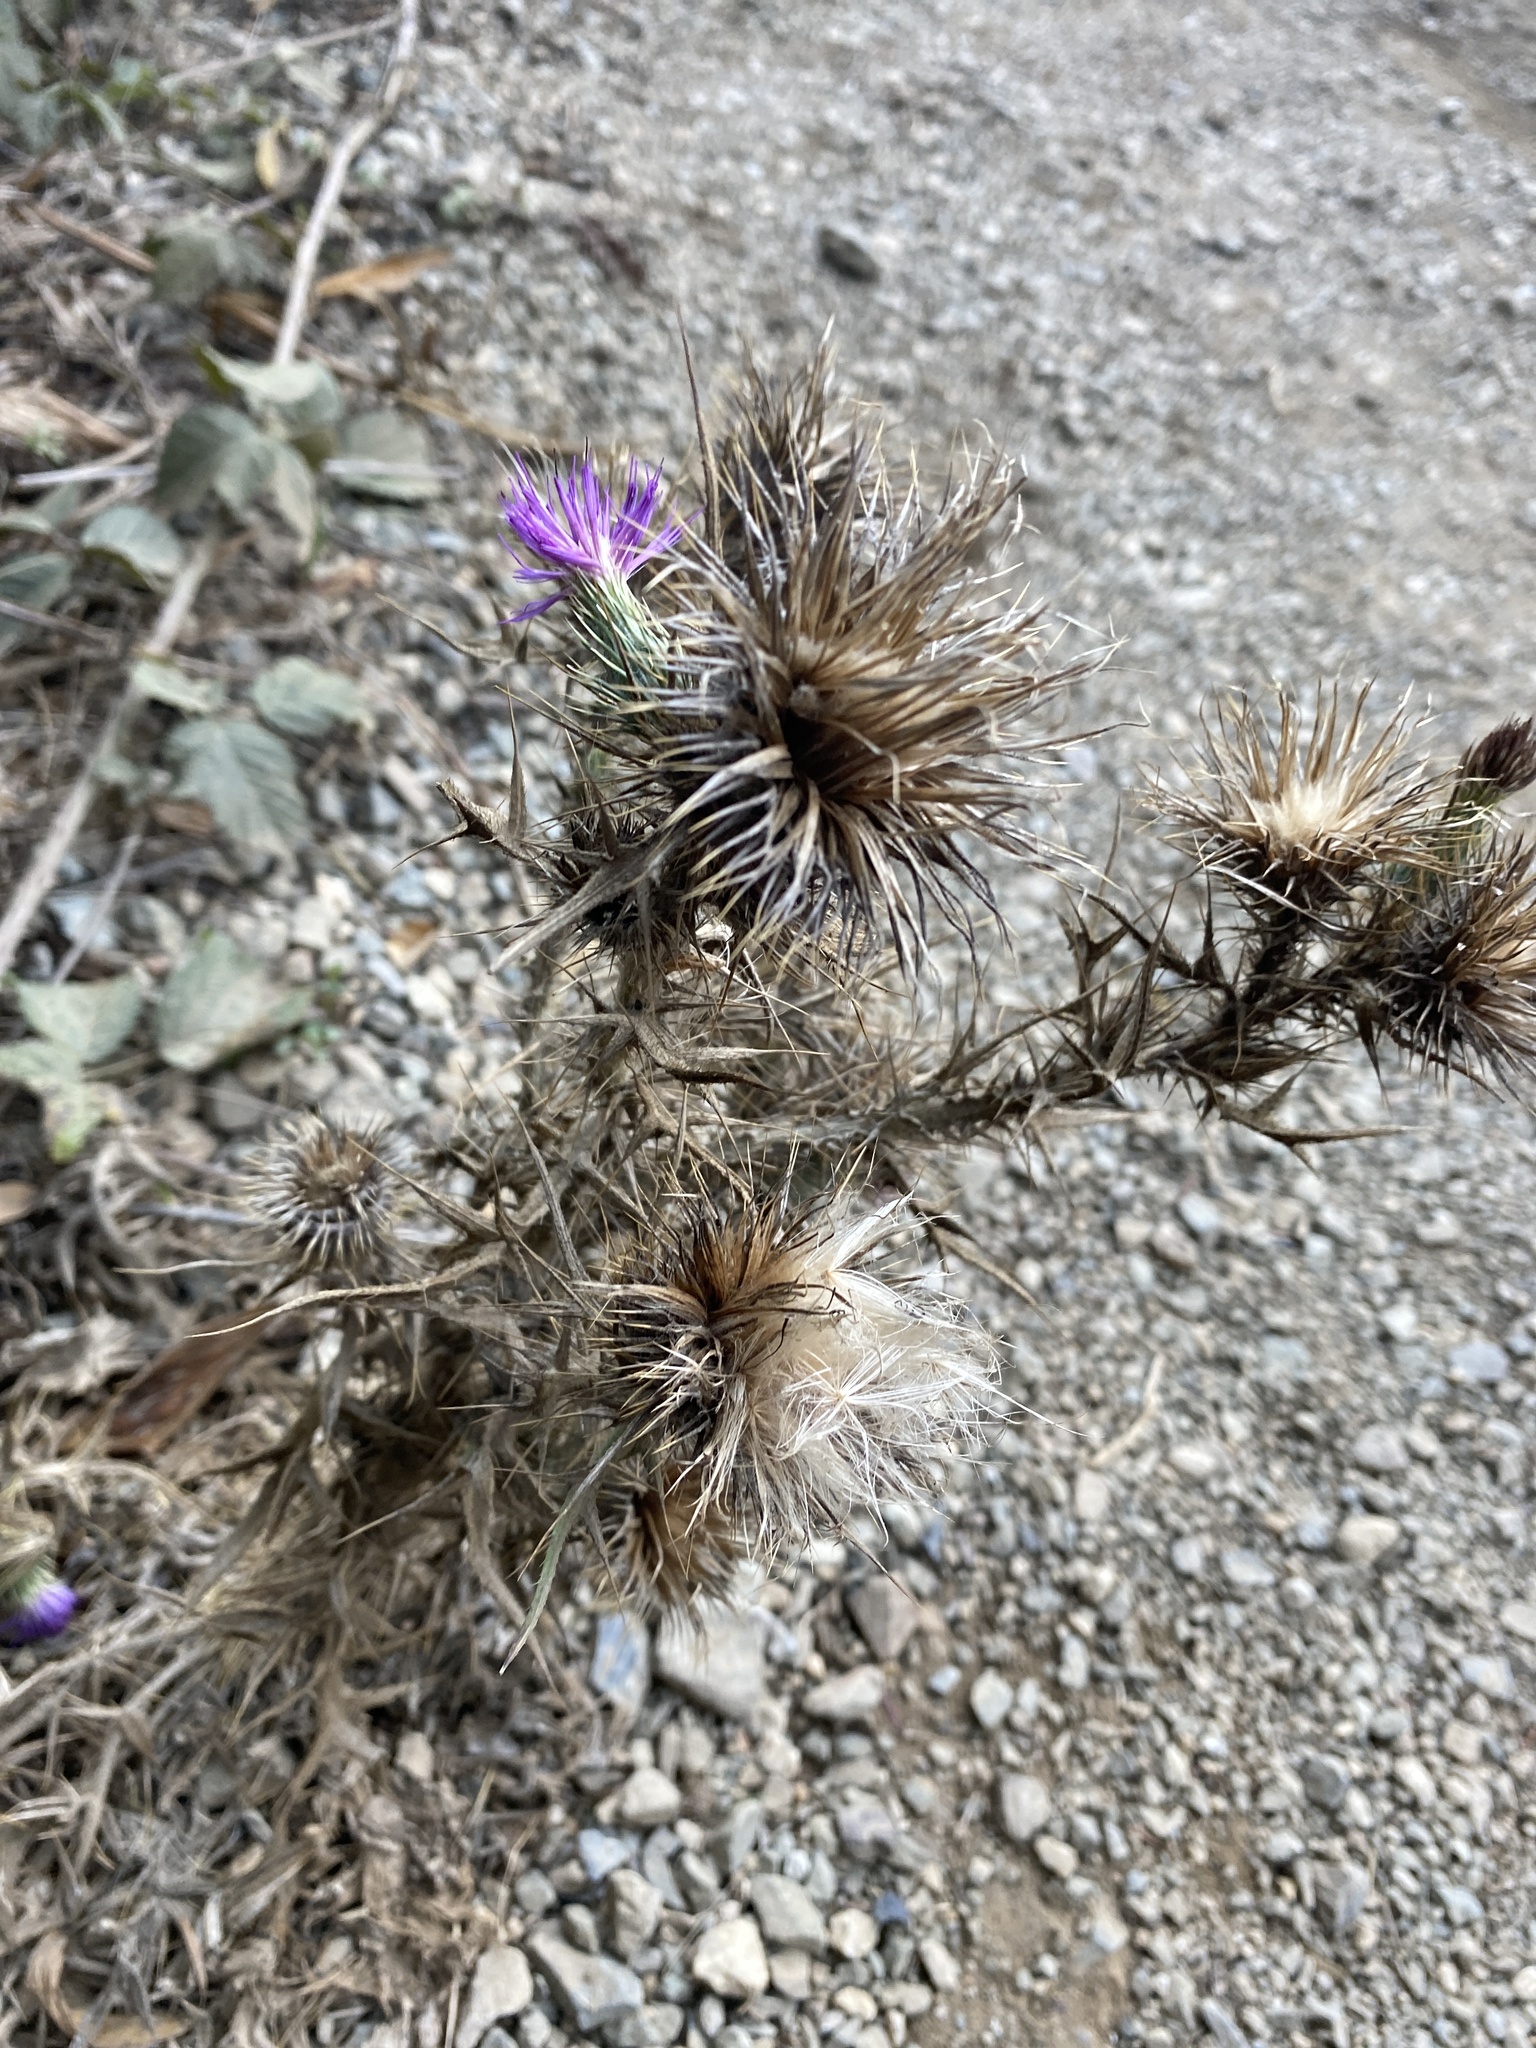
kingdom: Plantae
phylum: Tracheophyta
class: Magnoliopsida
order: Asterales
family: Asteraceae
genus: Cirsium
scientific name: Cirsium vulgare
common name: Bull thistle
